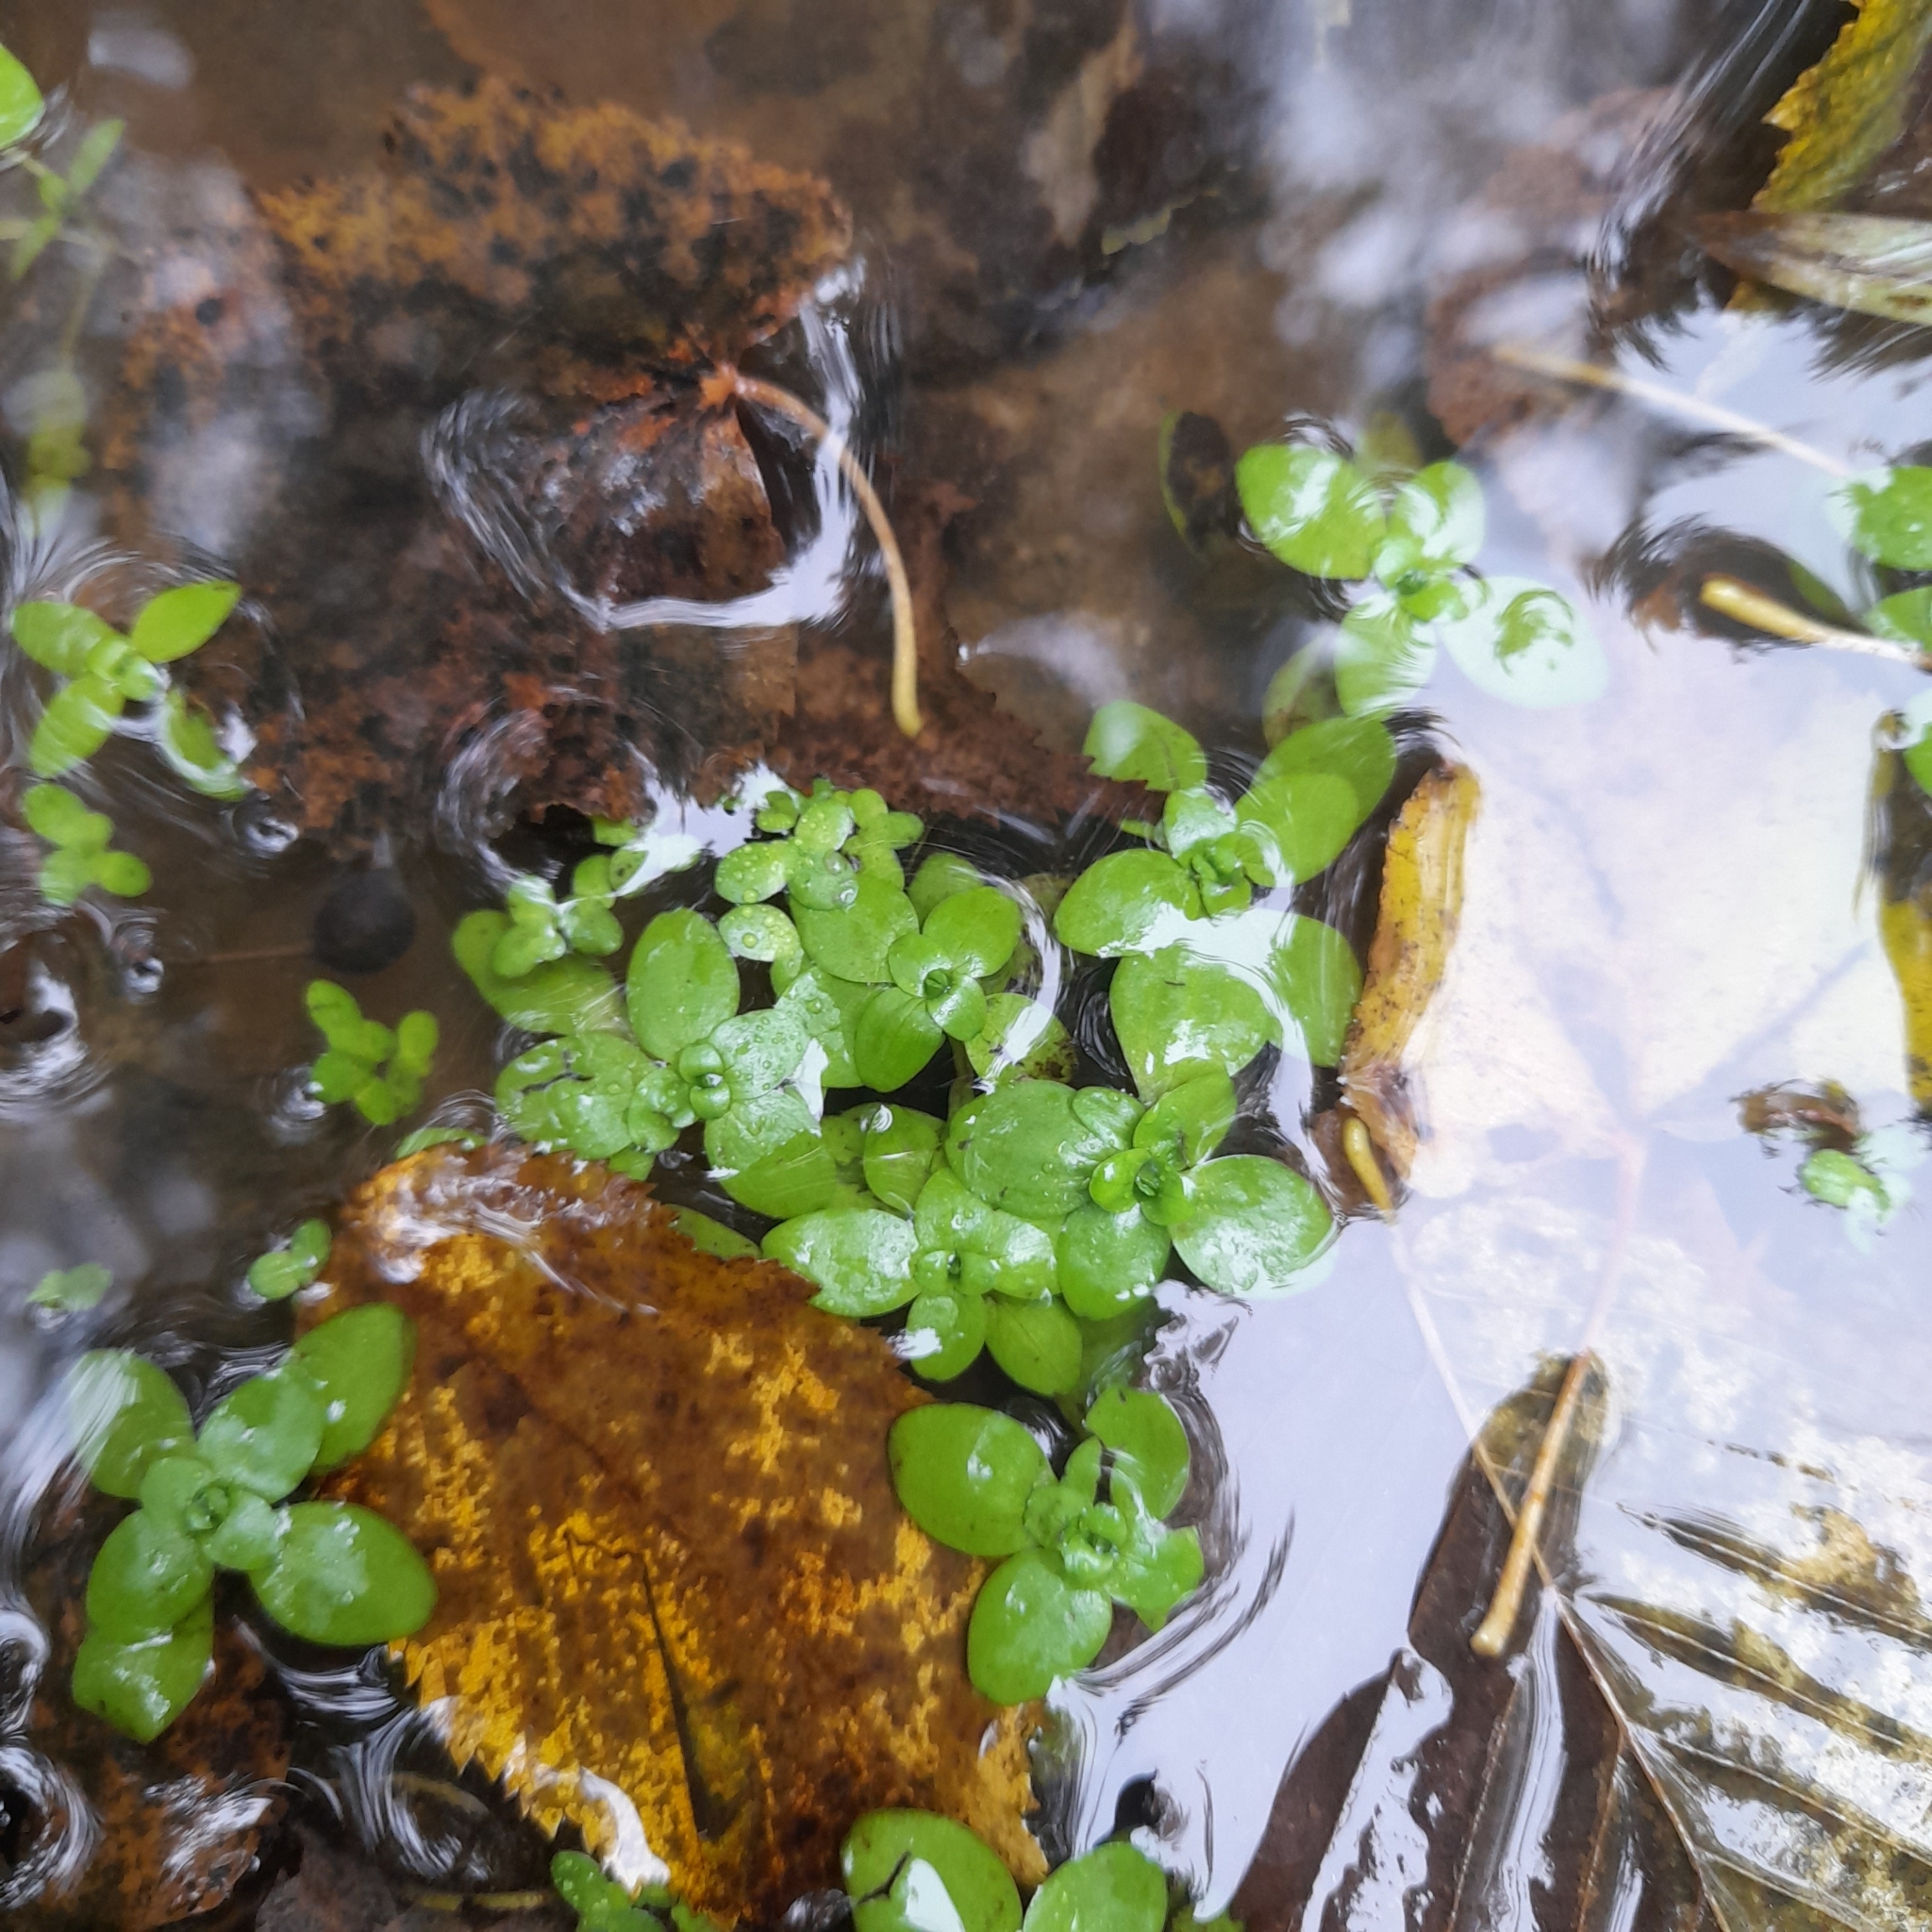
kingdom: Plantae
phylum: Tracheophyta
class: Magnoliopsida
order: Lamiales
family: Plantaginaceae
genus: Callitriche
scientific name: Callitriche stagnalis
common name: Common water-starwort
